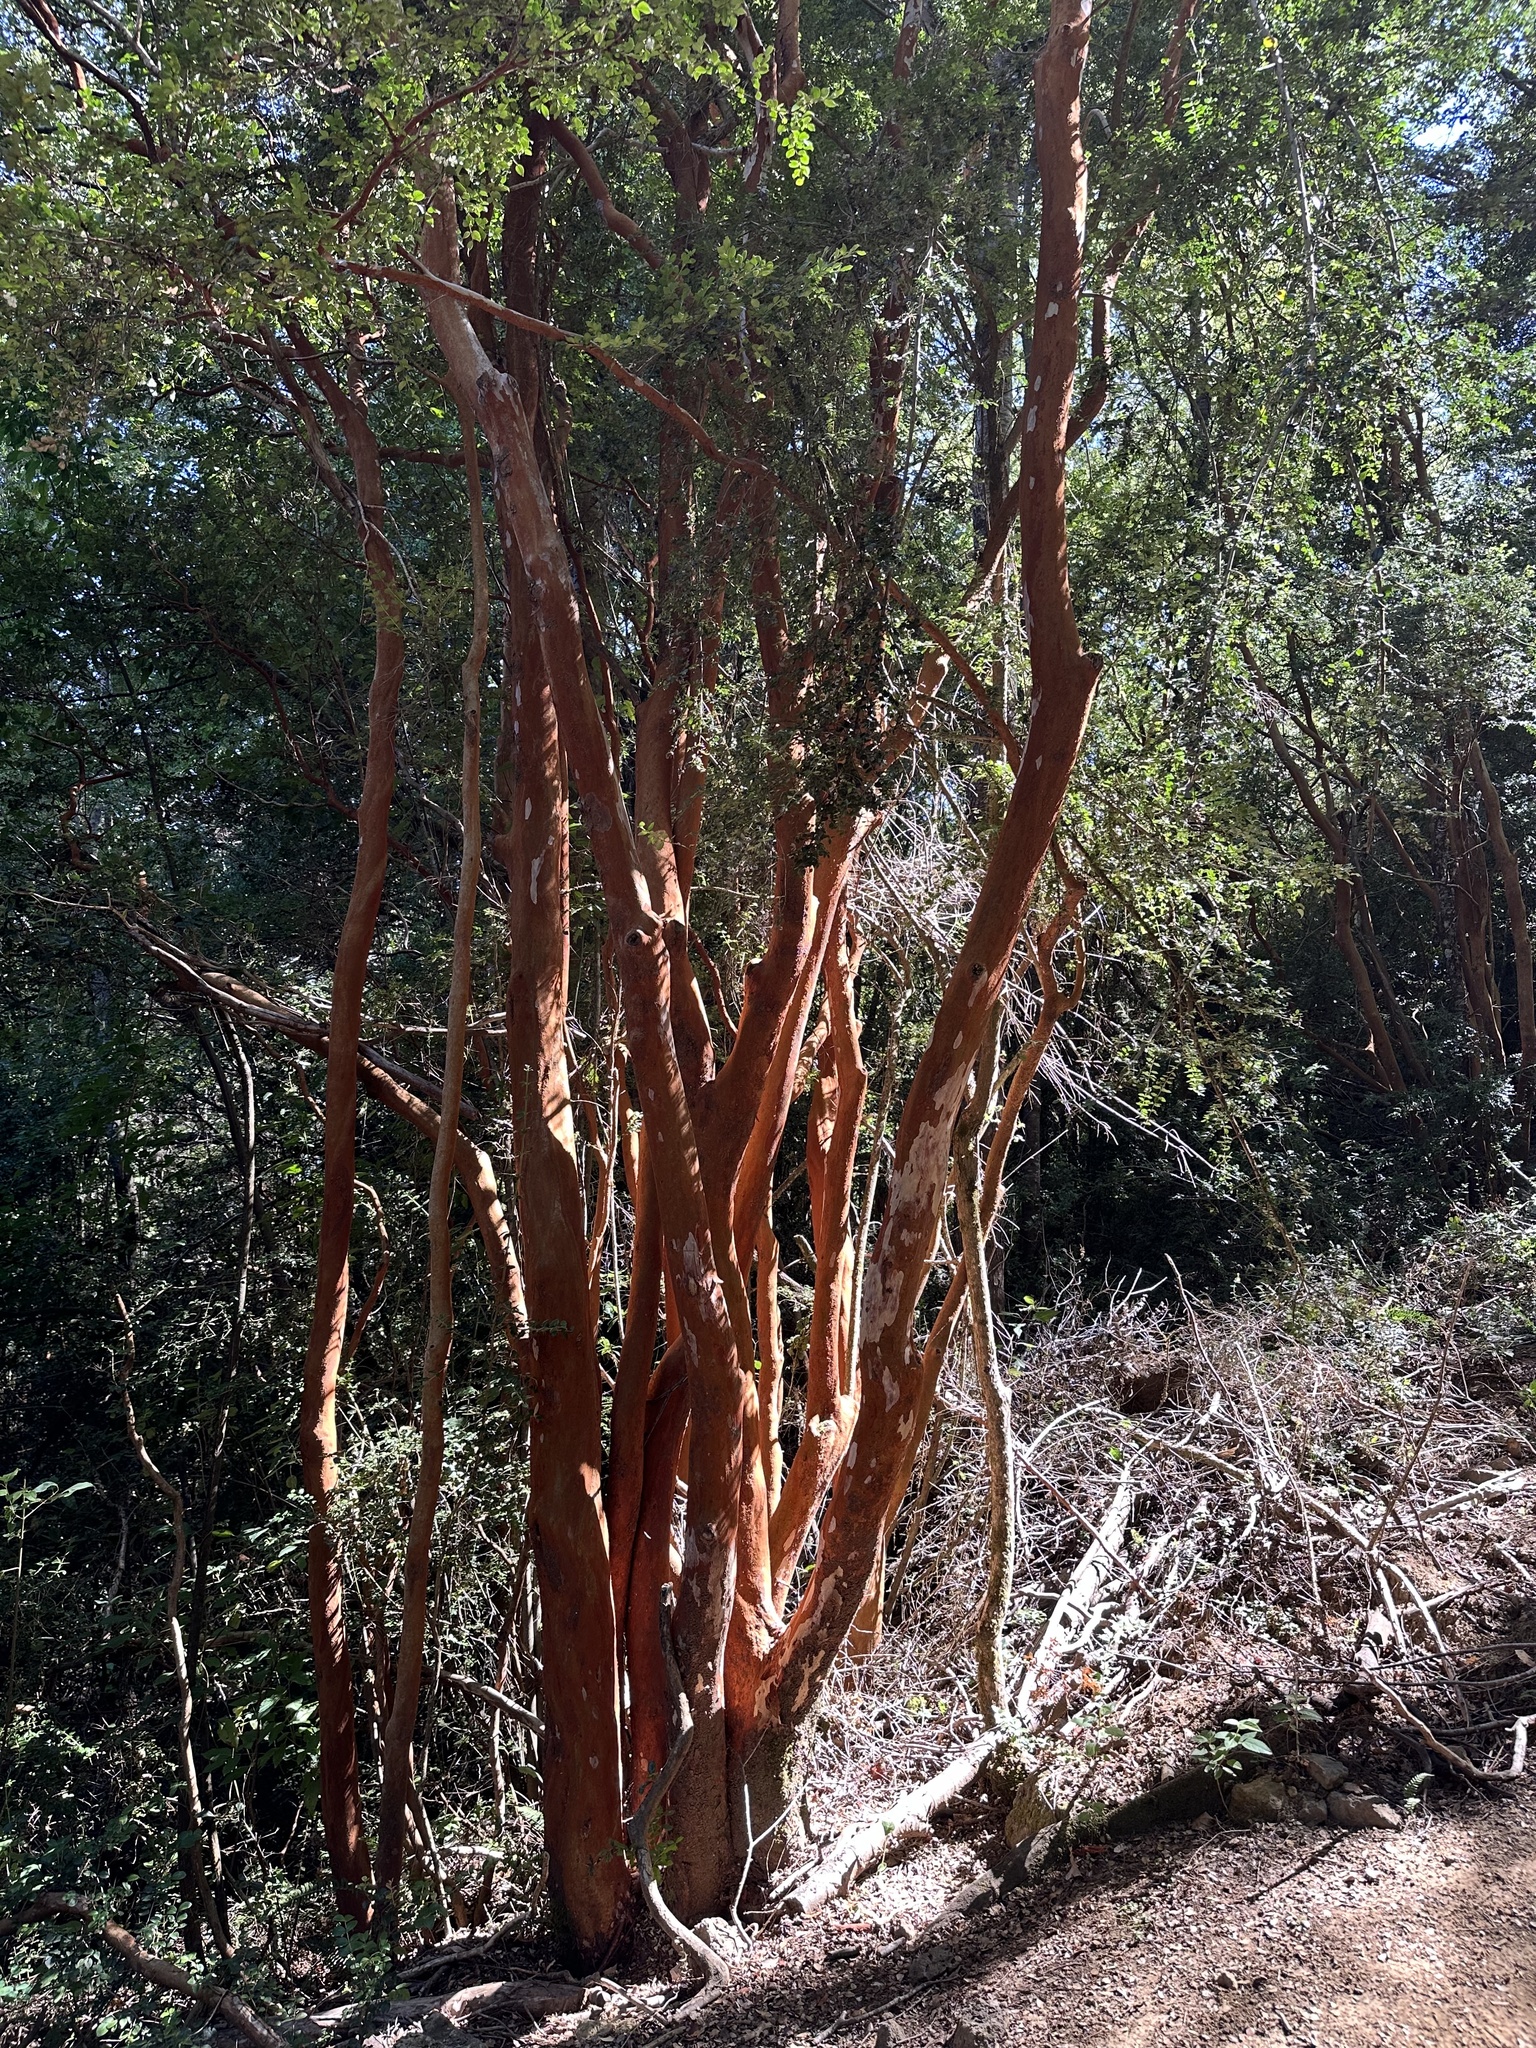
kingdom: Plantae
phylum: Tracheophyta
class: Magnoliopsida
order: Myrtales
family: Myrtaceae
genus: Luma
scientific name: Luma apiculata
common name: Chilean myrtle
